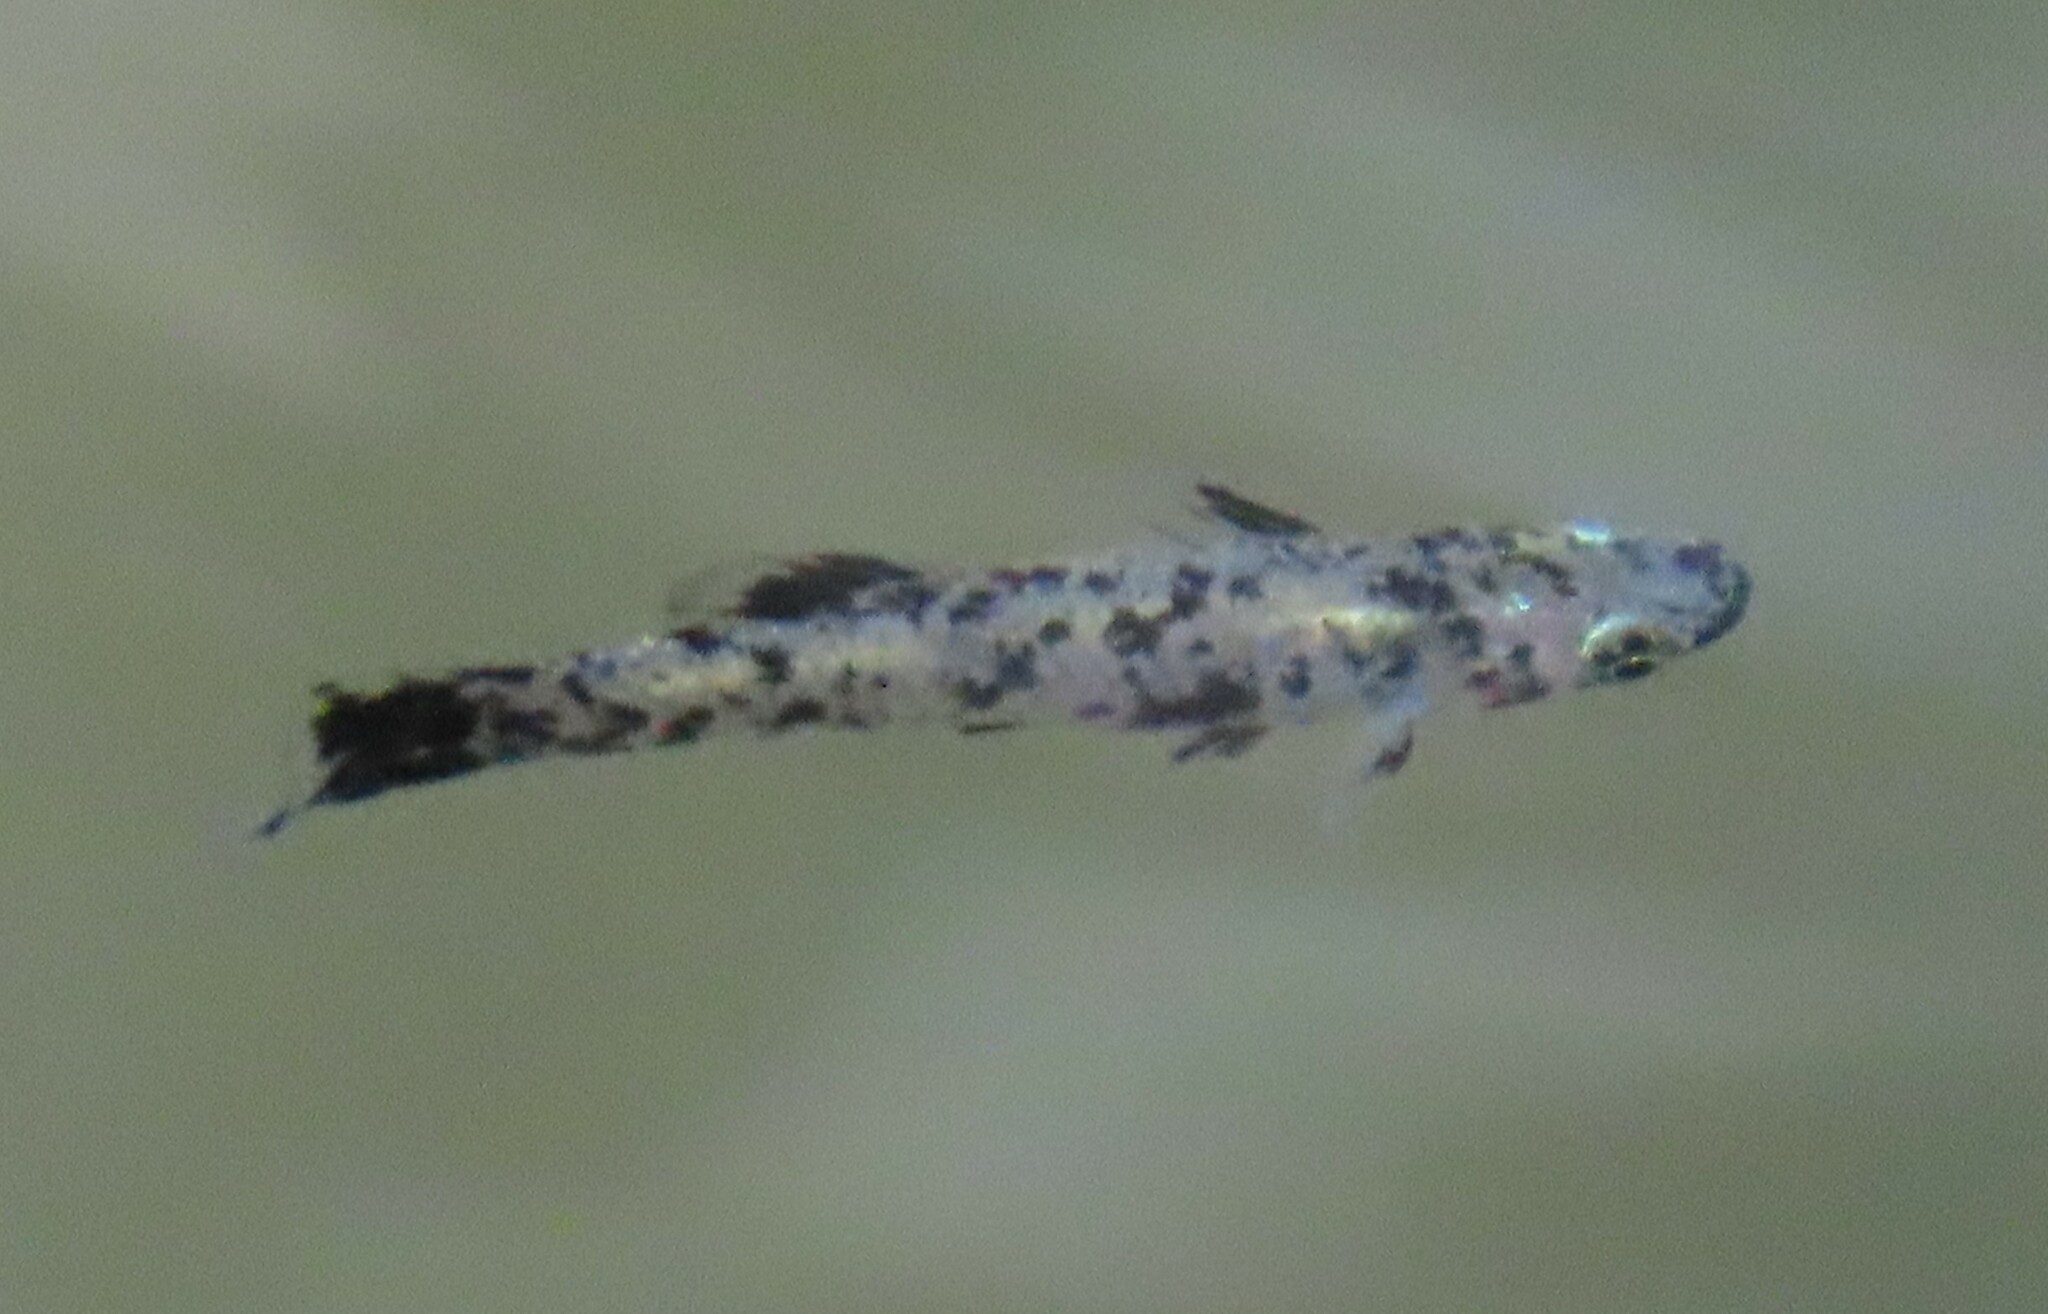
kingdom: Animalia
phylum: Chordata
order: Cyprinodontiformes
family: Poeciliidae
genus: Gambusia
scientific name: Gambusia holbrooki
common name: Eastern mosquitofish
